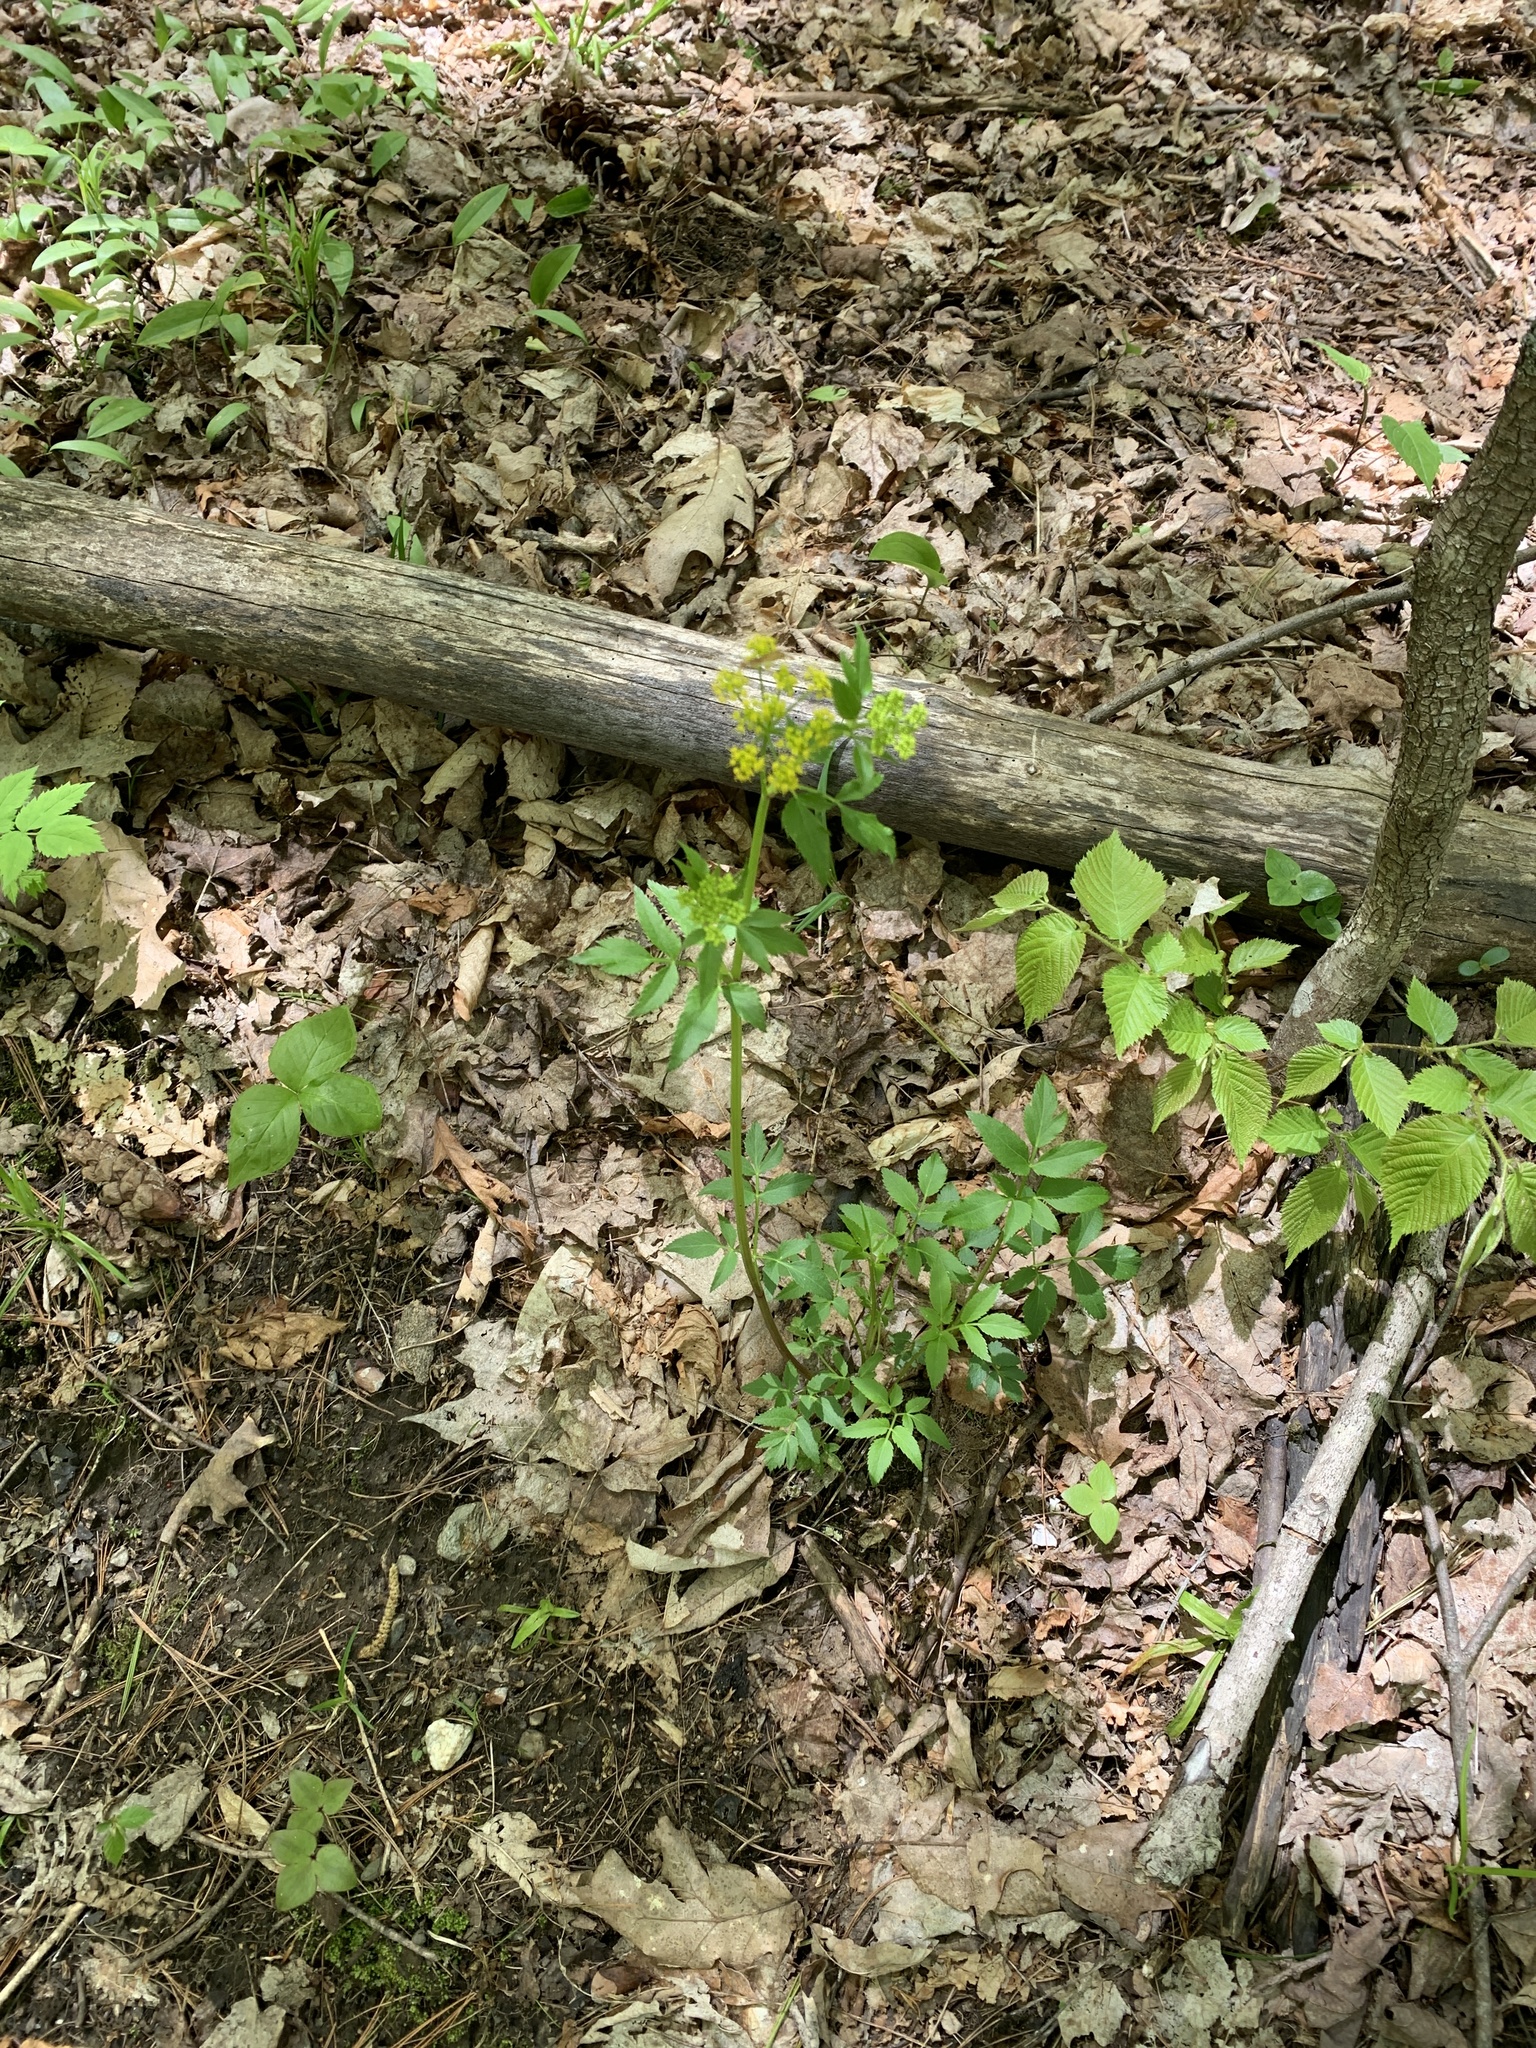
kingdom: Plantae
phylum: Tracheophyta
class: Magnoliopsida
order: Apiales
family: Apiaceae
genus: Zizia
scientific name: Zizia aurea
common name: Golden alexanders
